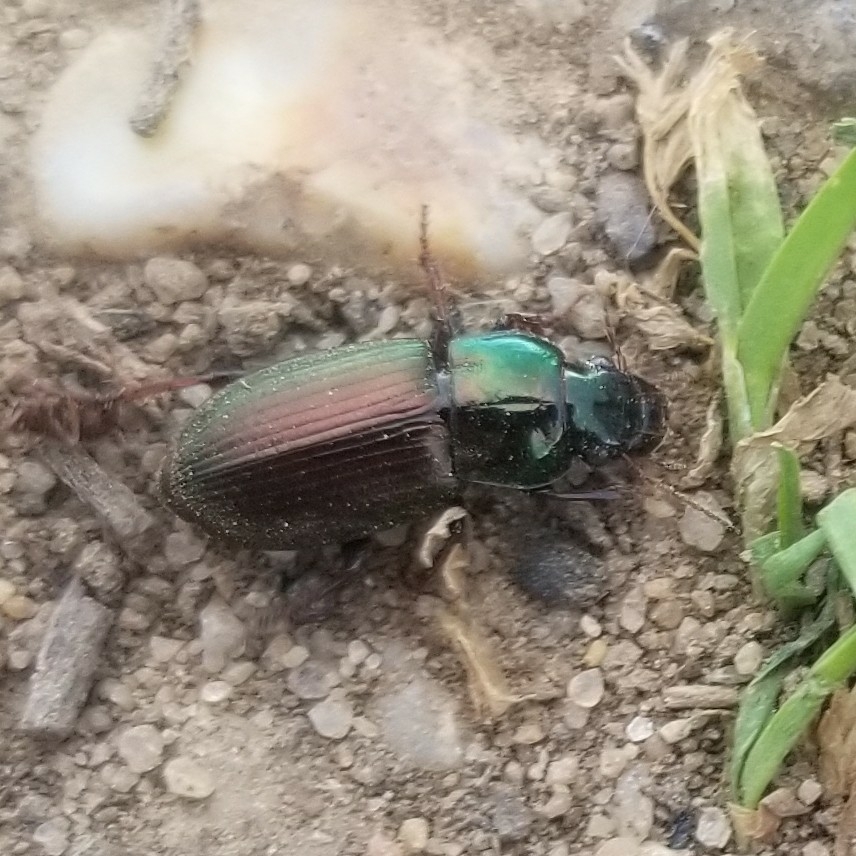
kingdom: Animalia
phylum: Arthropoda
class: Insecta
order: Coleoptera
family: Carabidae
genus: Harpalus
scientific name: Harpalus affinis
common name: Polychrome harp ground beetle
